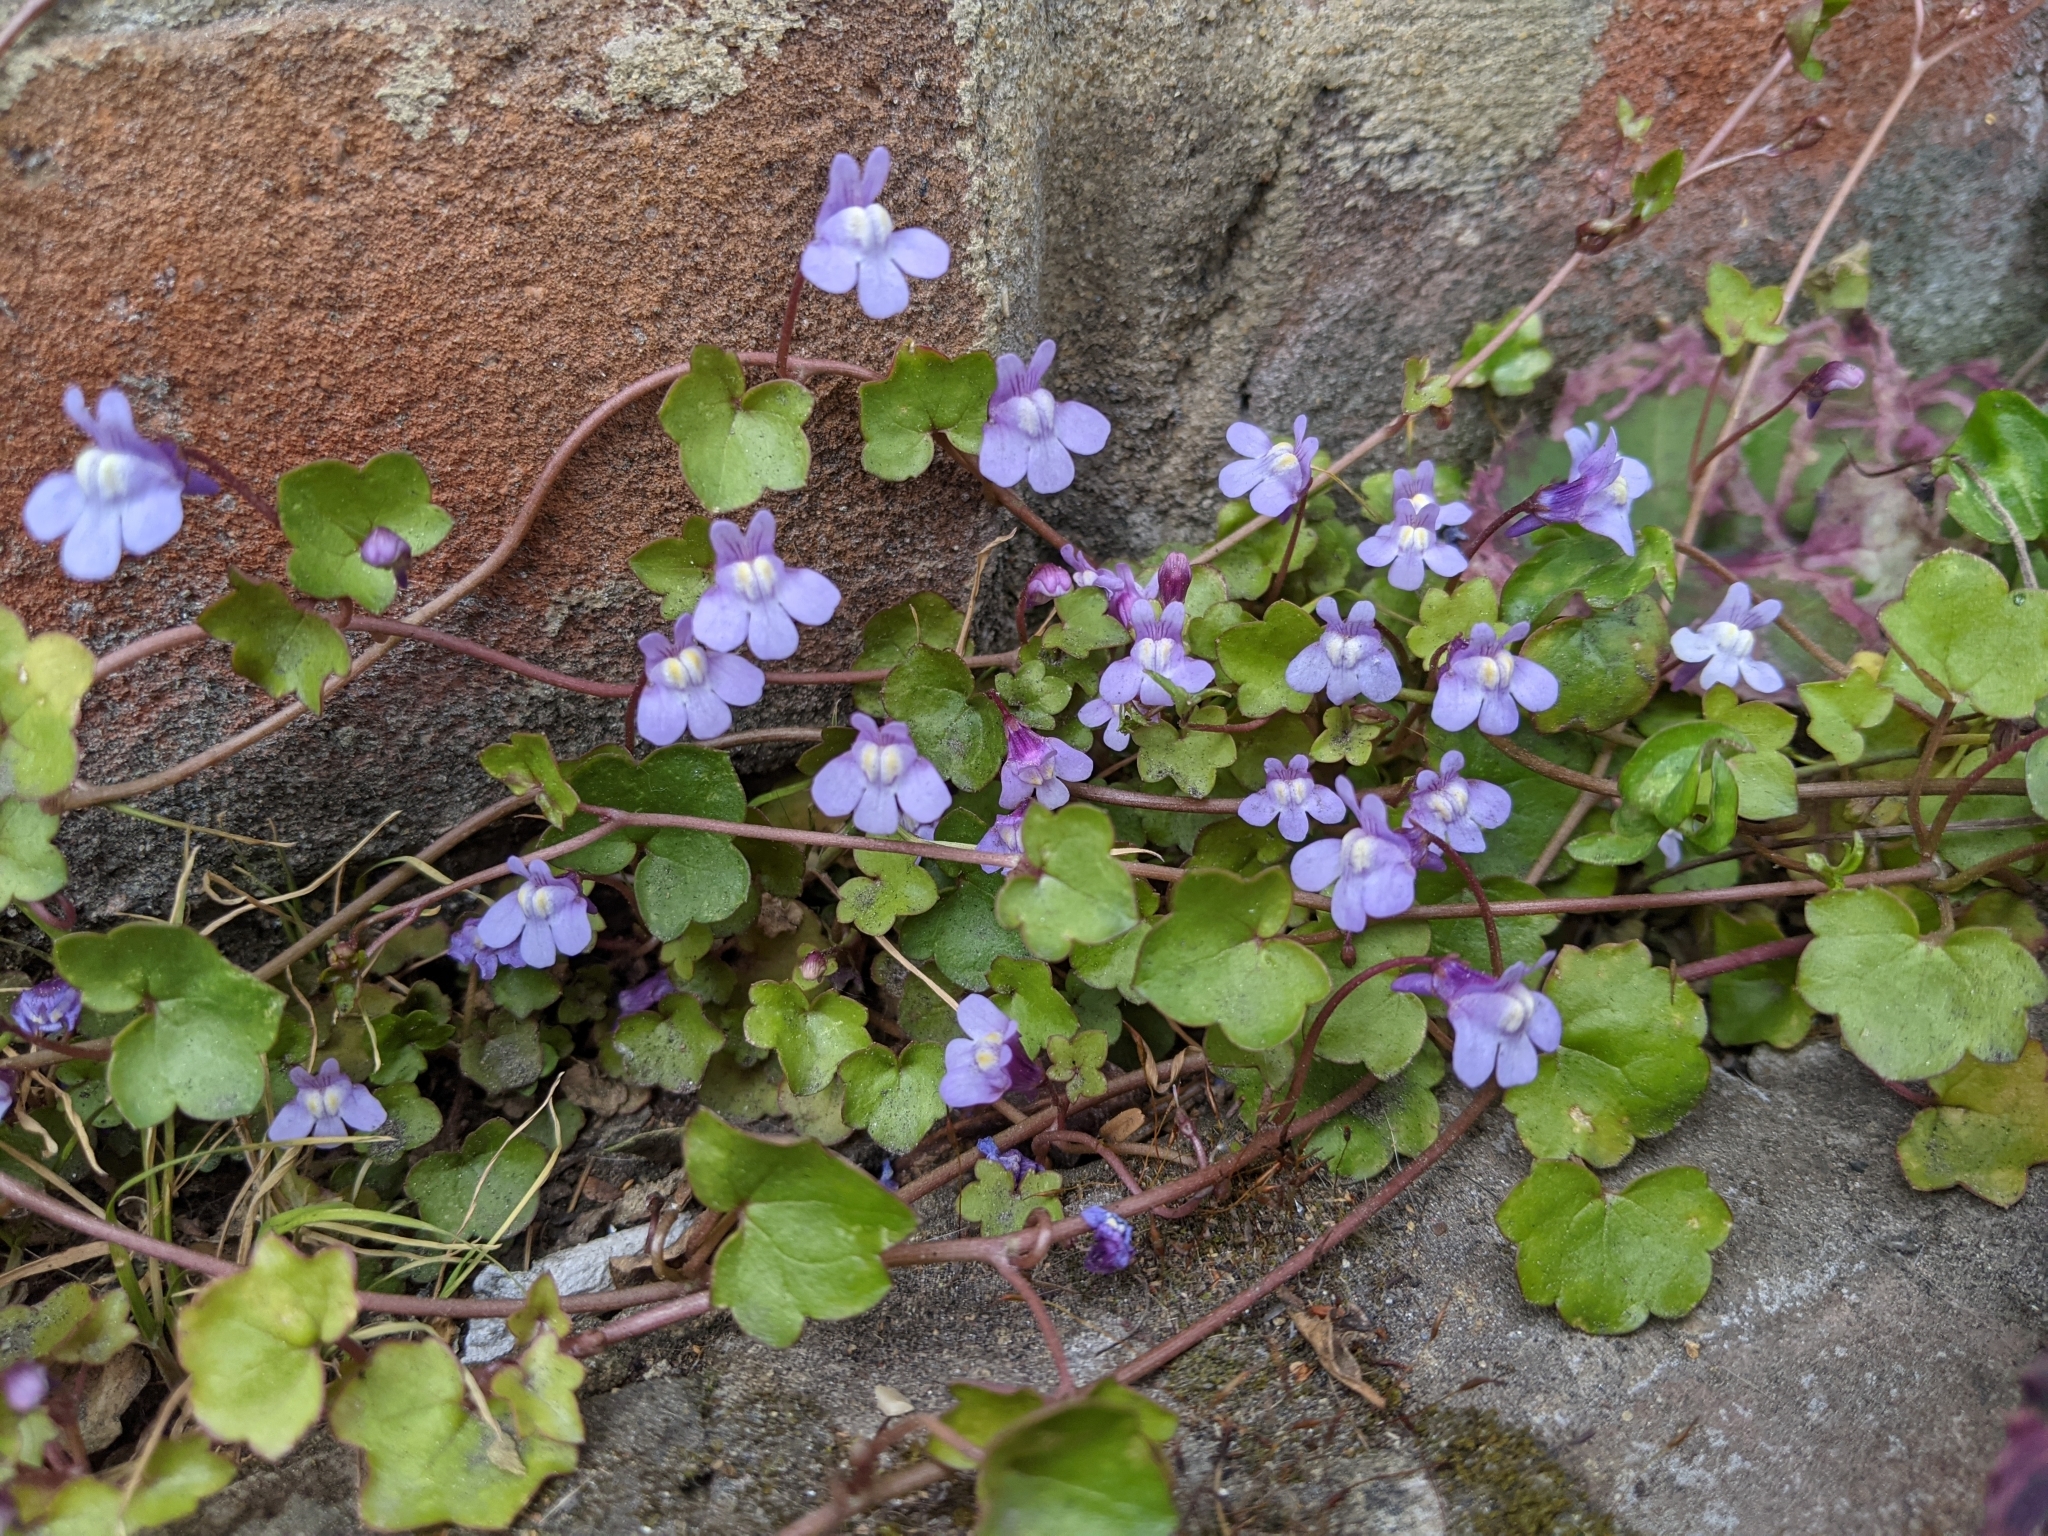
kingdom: Plantae
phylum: Tracheophyta
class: Magnoliopsida
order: Lamiales
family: Plantaginaceae
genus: Cymbalaria
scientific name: Cymbalaria muralis
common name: Ivy-leaved toadflax
